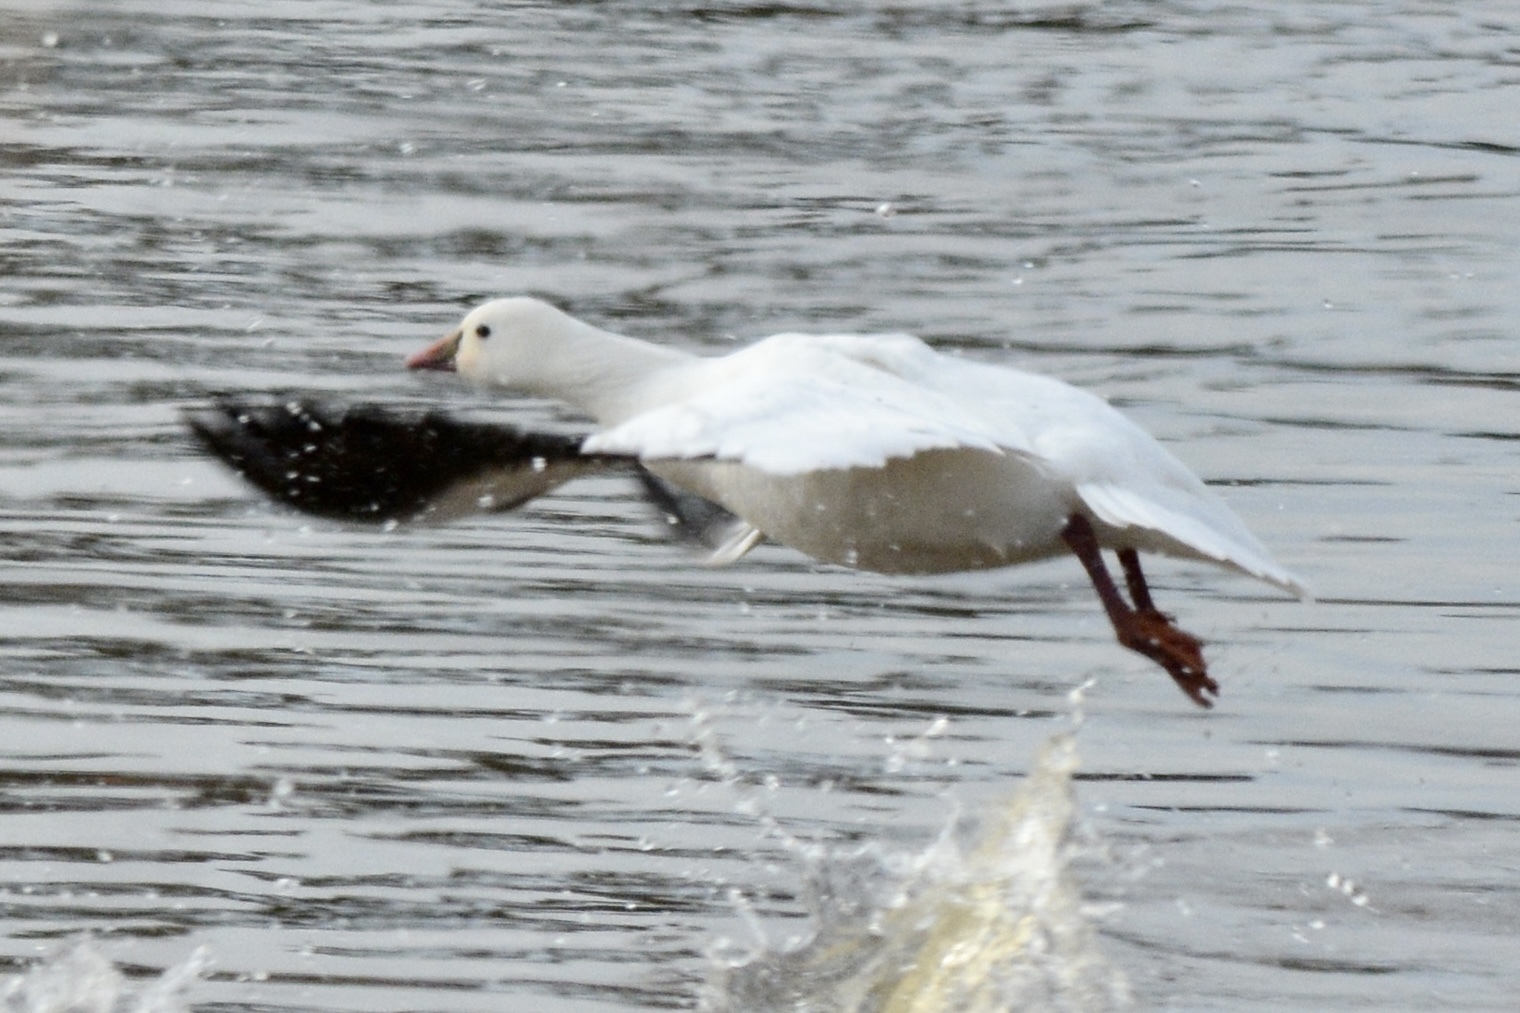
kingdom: Animalia
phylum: Chordata
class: Aves
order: Anseriformes
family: Anatidae
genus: Anser
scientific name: Anser rossii
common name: Ross's goose
